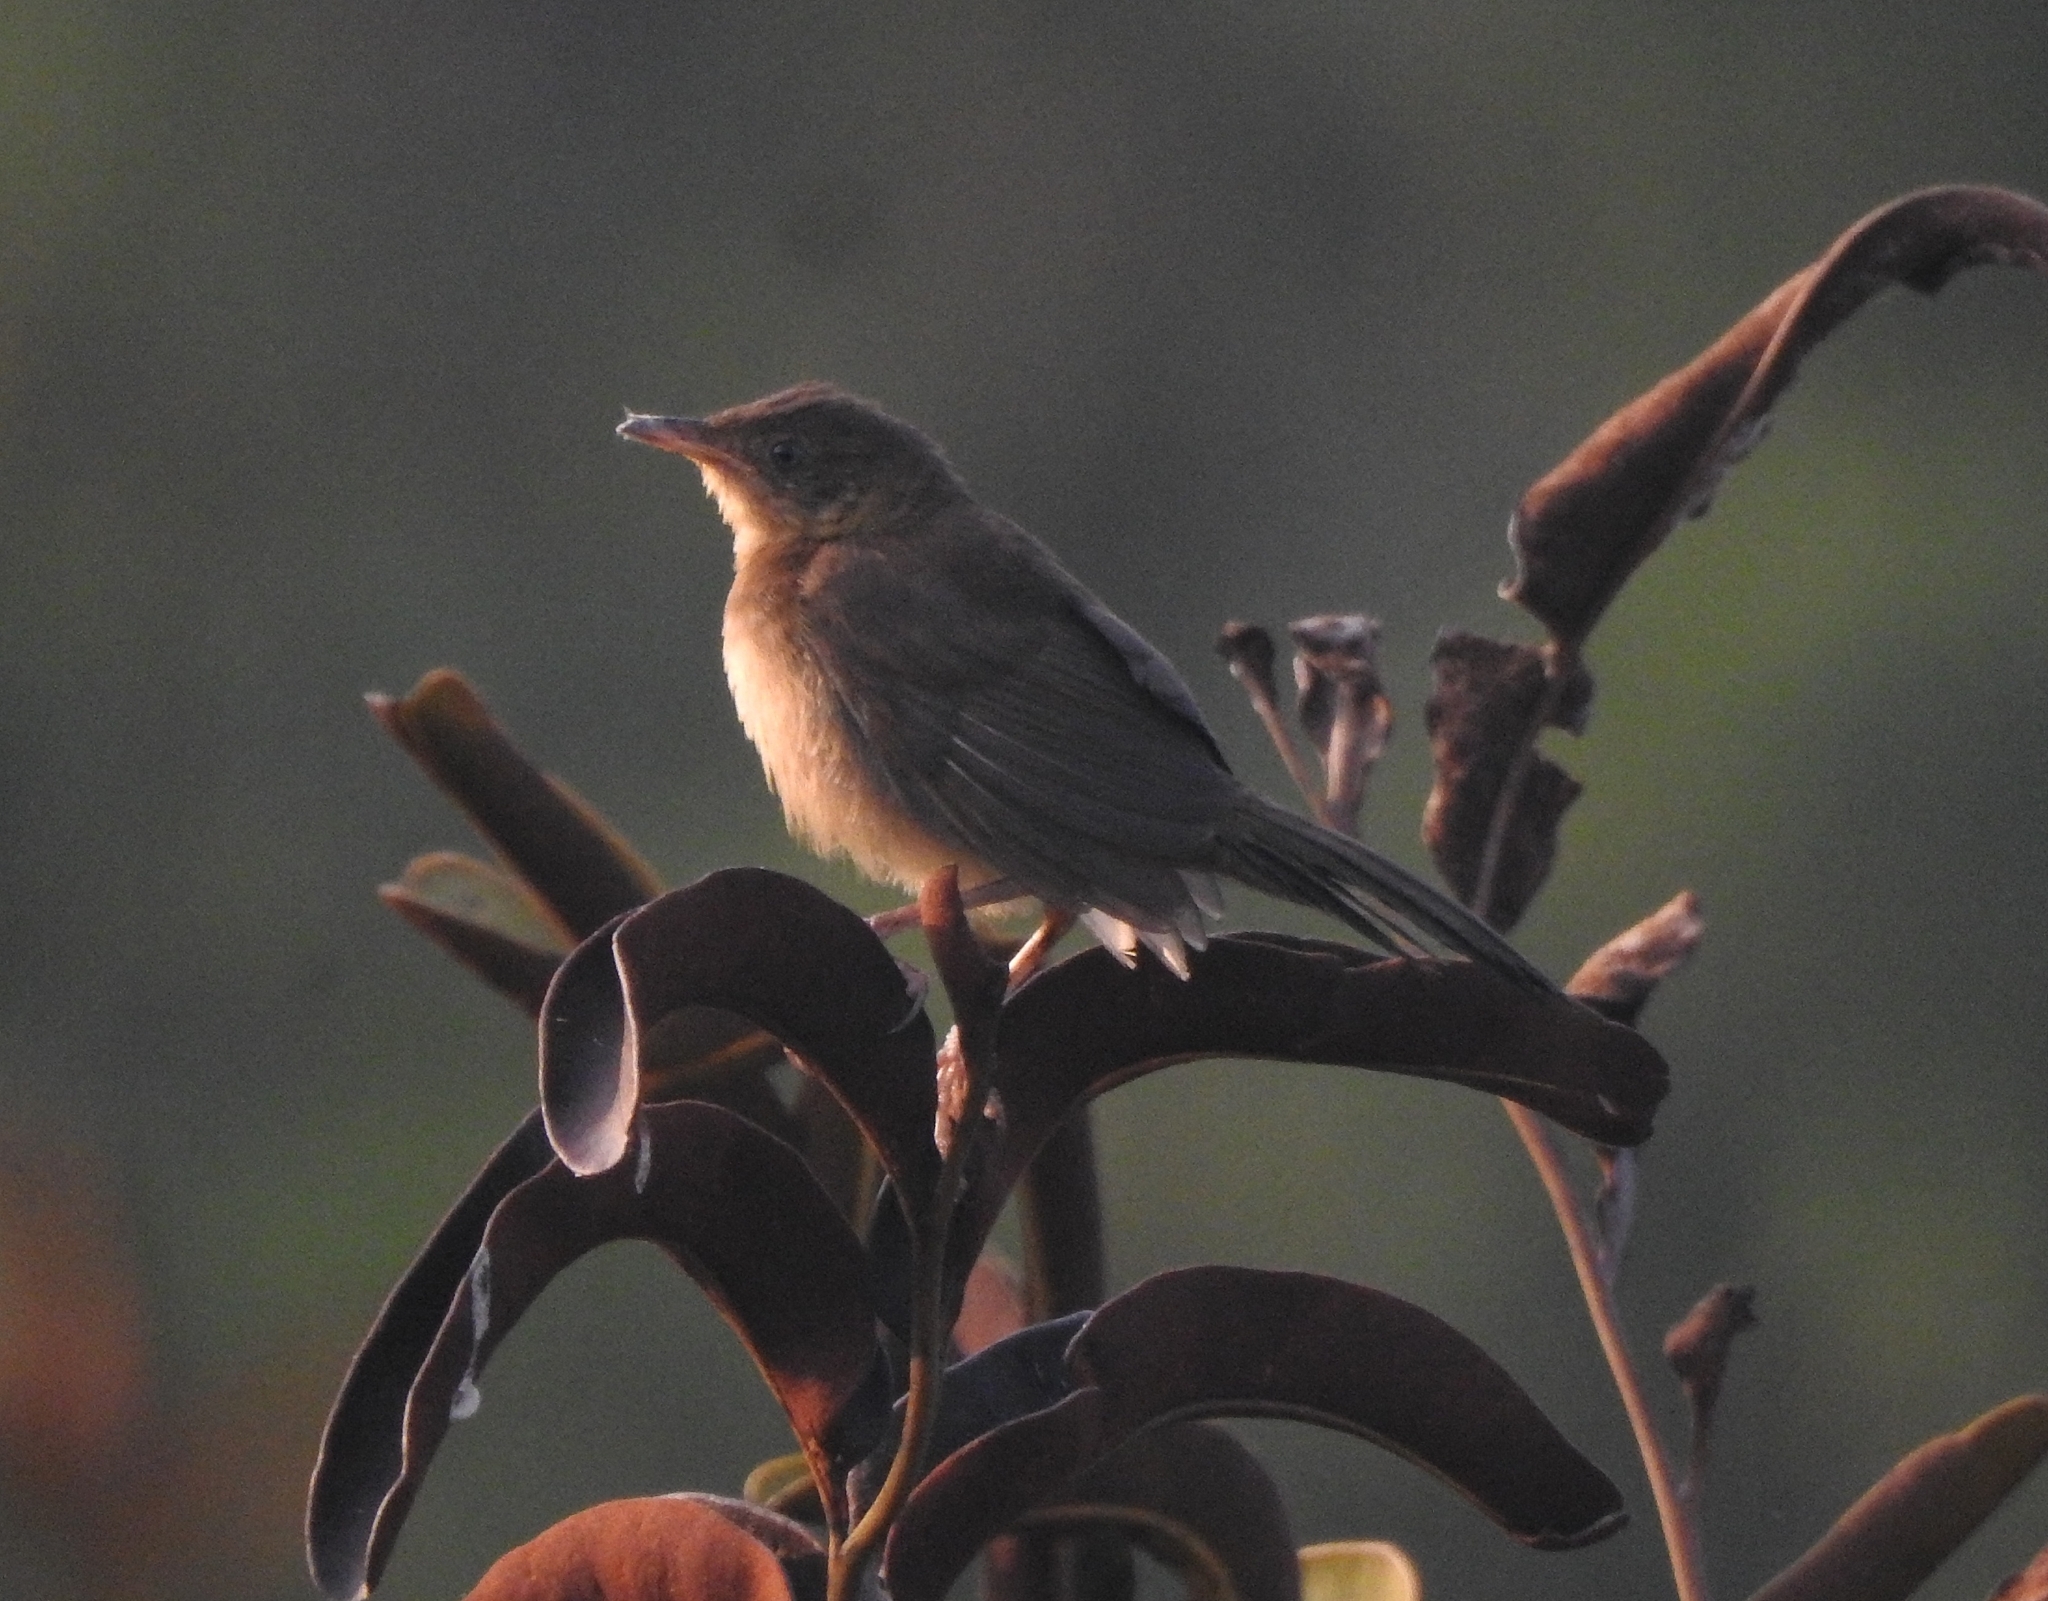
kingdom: Animalia
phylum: Chordata
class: Aves
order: Passeriformes
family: Locustellidae
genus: Schoenicola
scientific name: Schoenicola platyurus
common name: Broad-tailed grassbird
